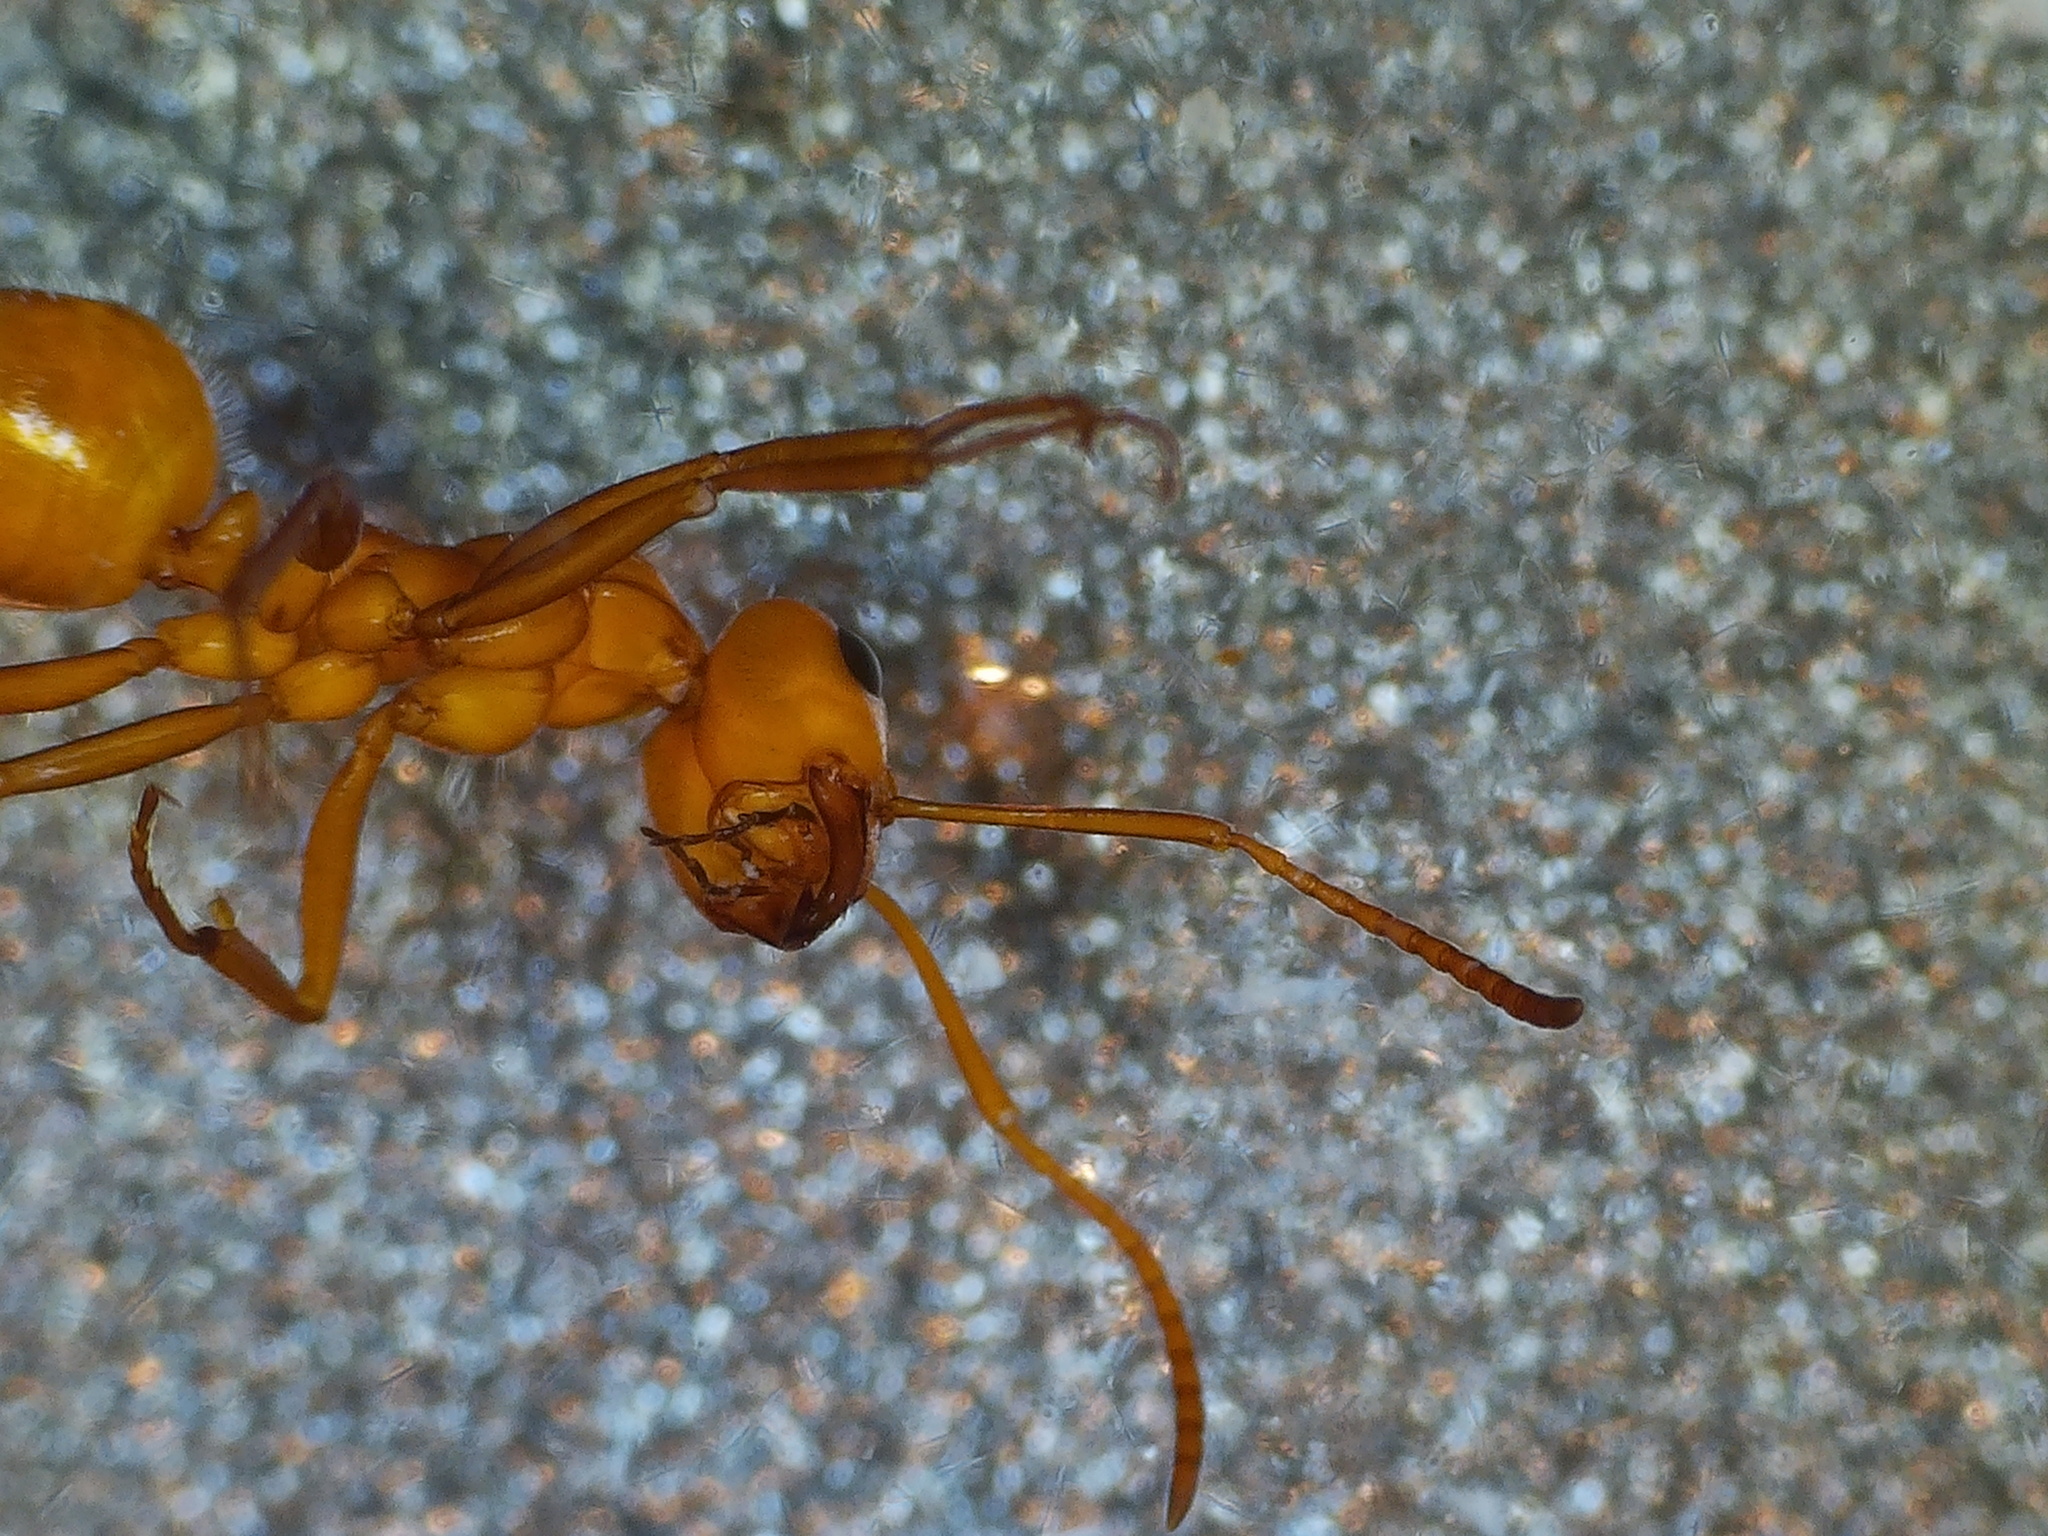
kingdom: Animalia
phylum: Arthropoda
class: Insecta
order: Hymenoptera
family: Formicidae
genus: Formica
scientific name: Formica bradleyi
